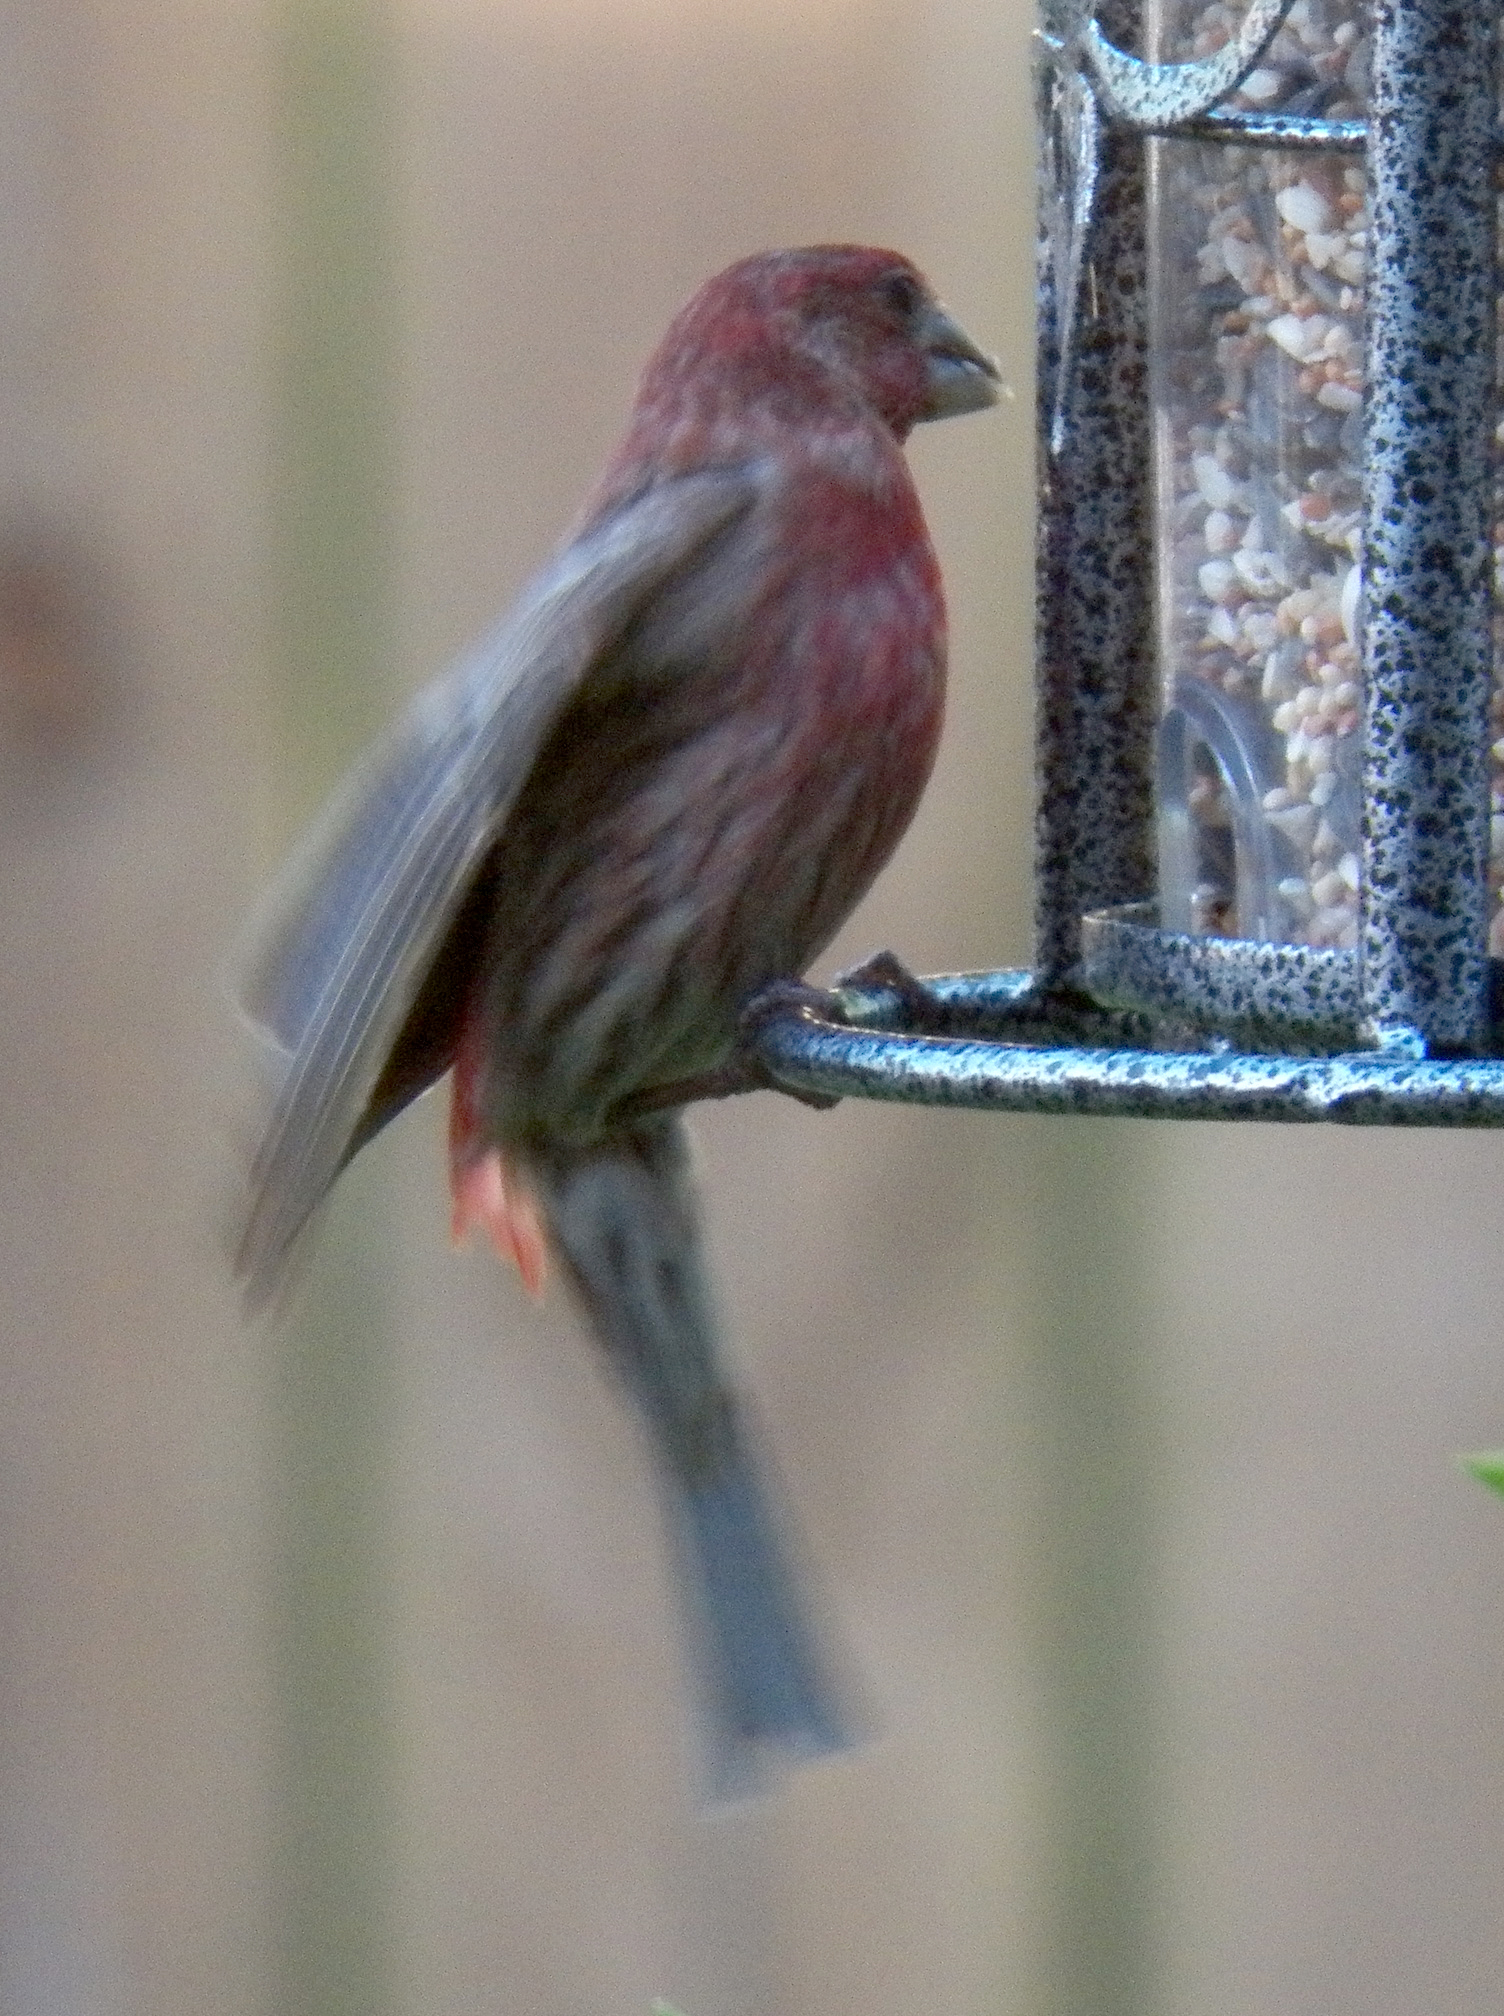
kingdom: Animalia
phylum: Chordata
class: Aves
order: Passeriformes
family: Fringillidae
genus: Haemorhous
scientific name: Haemorhous mexicanus
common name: House finch
